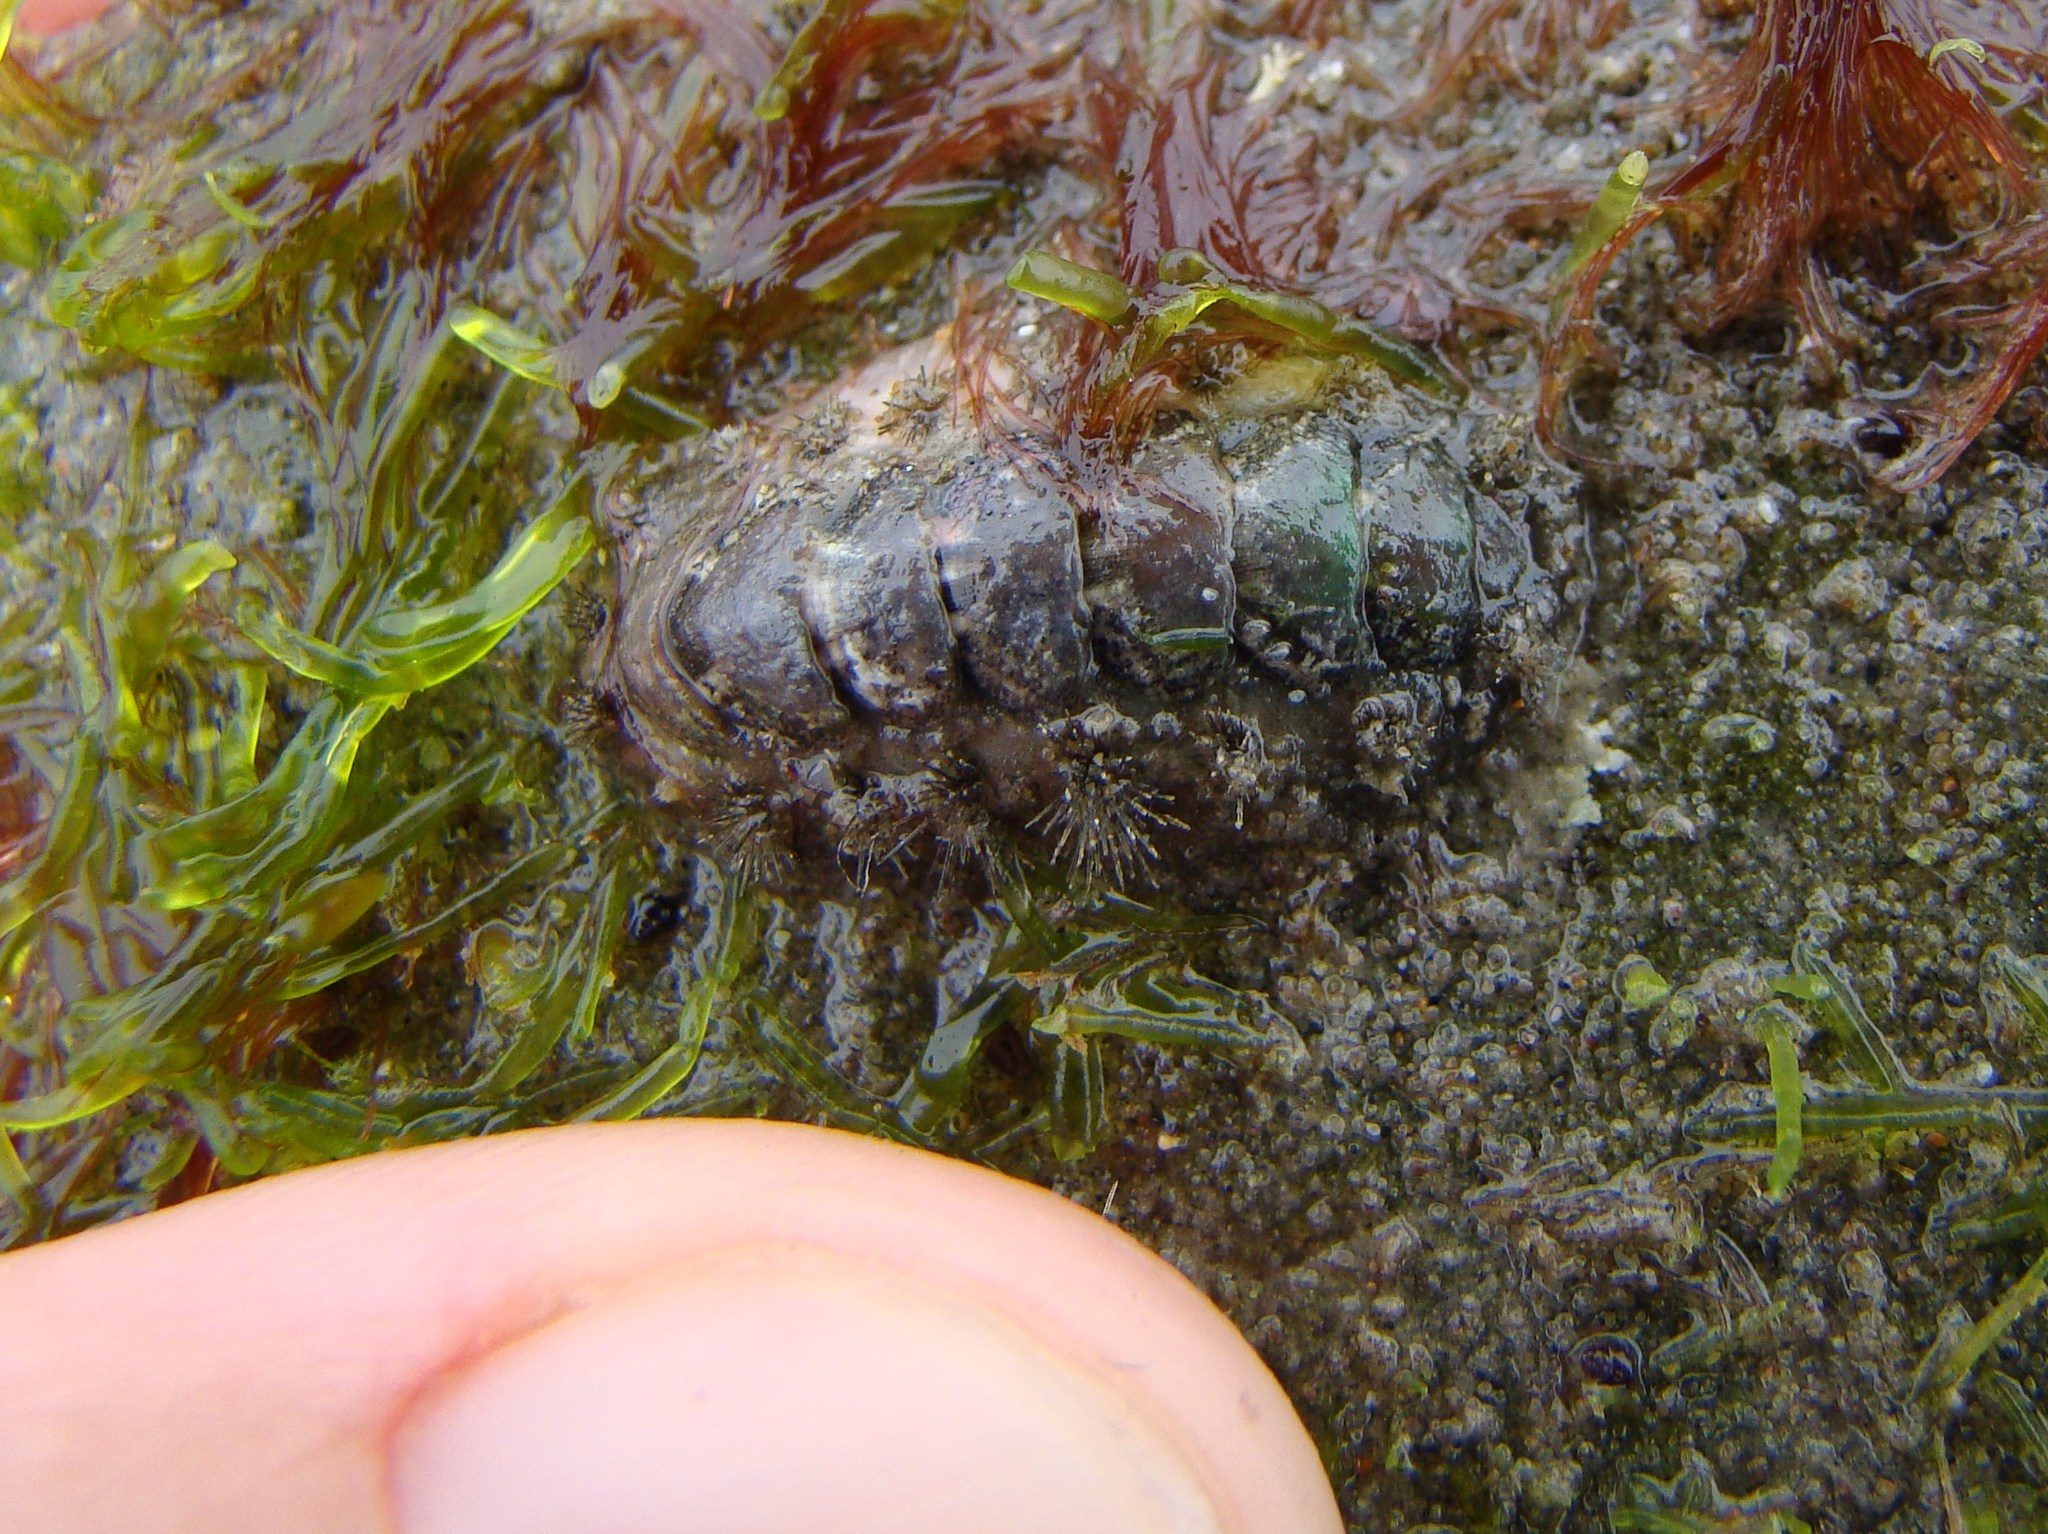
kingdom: Animalia
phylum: Mollusca
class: Polyplacophora
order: Chitonida
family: Acanthochitonidae
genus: Acanthochitona
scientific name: Acanthochitona zelandica
